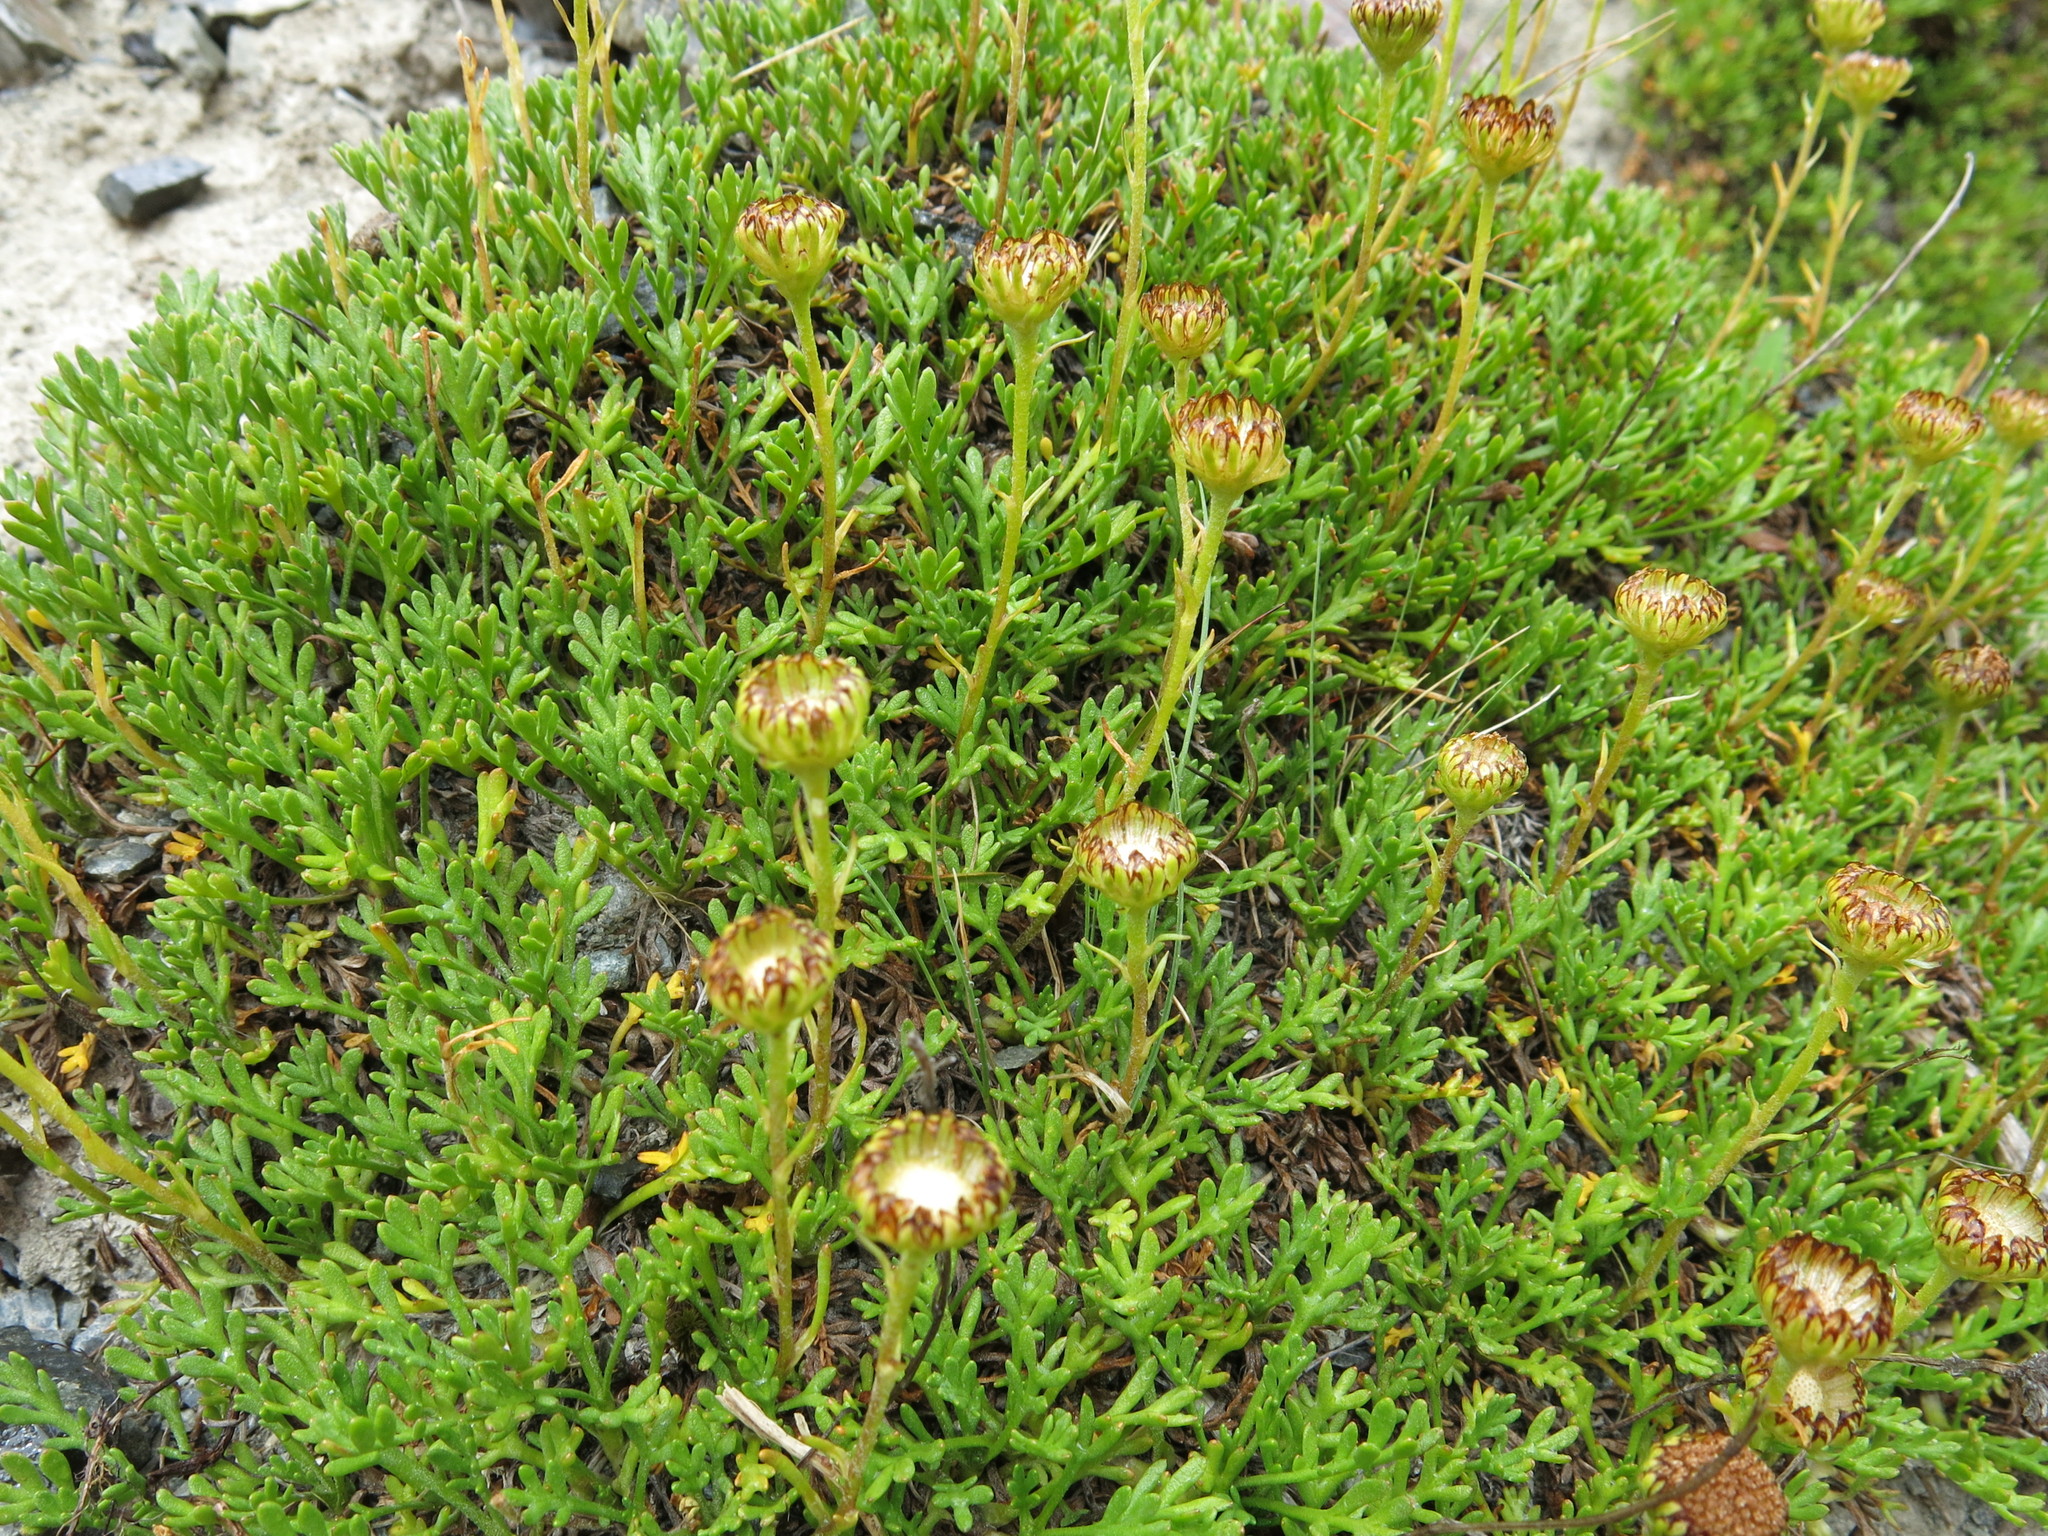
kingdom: Plantae
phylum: Tracheophyta
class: Magnoliopsida
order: Asterales
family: Asteraceae
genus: Leptinella
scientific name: Leptinella pyrethrifolia
